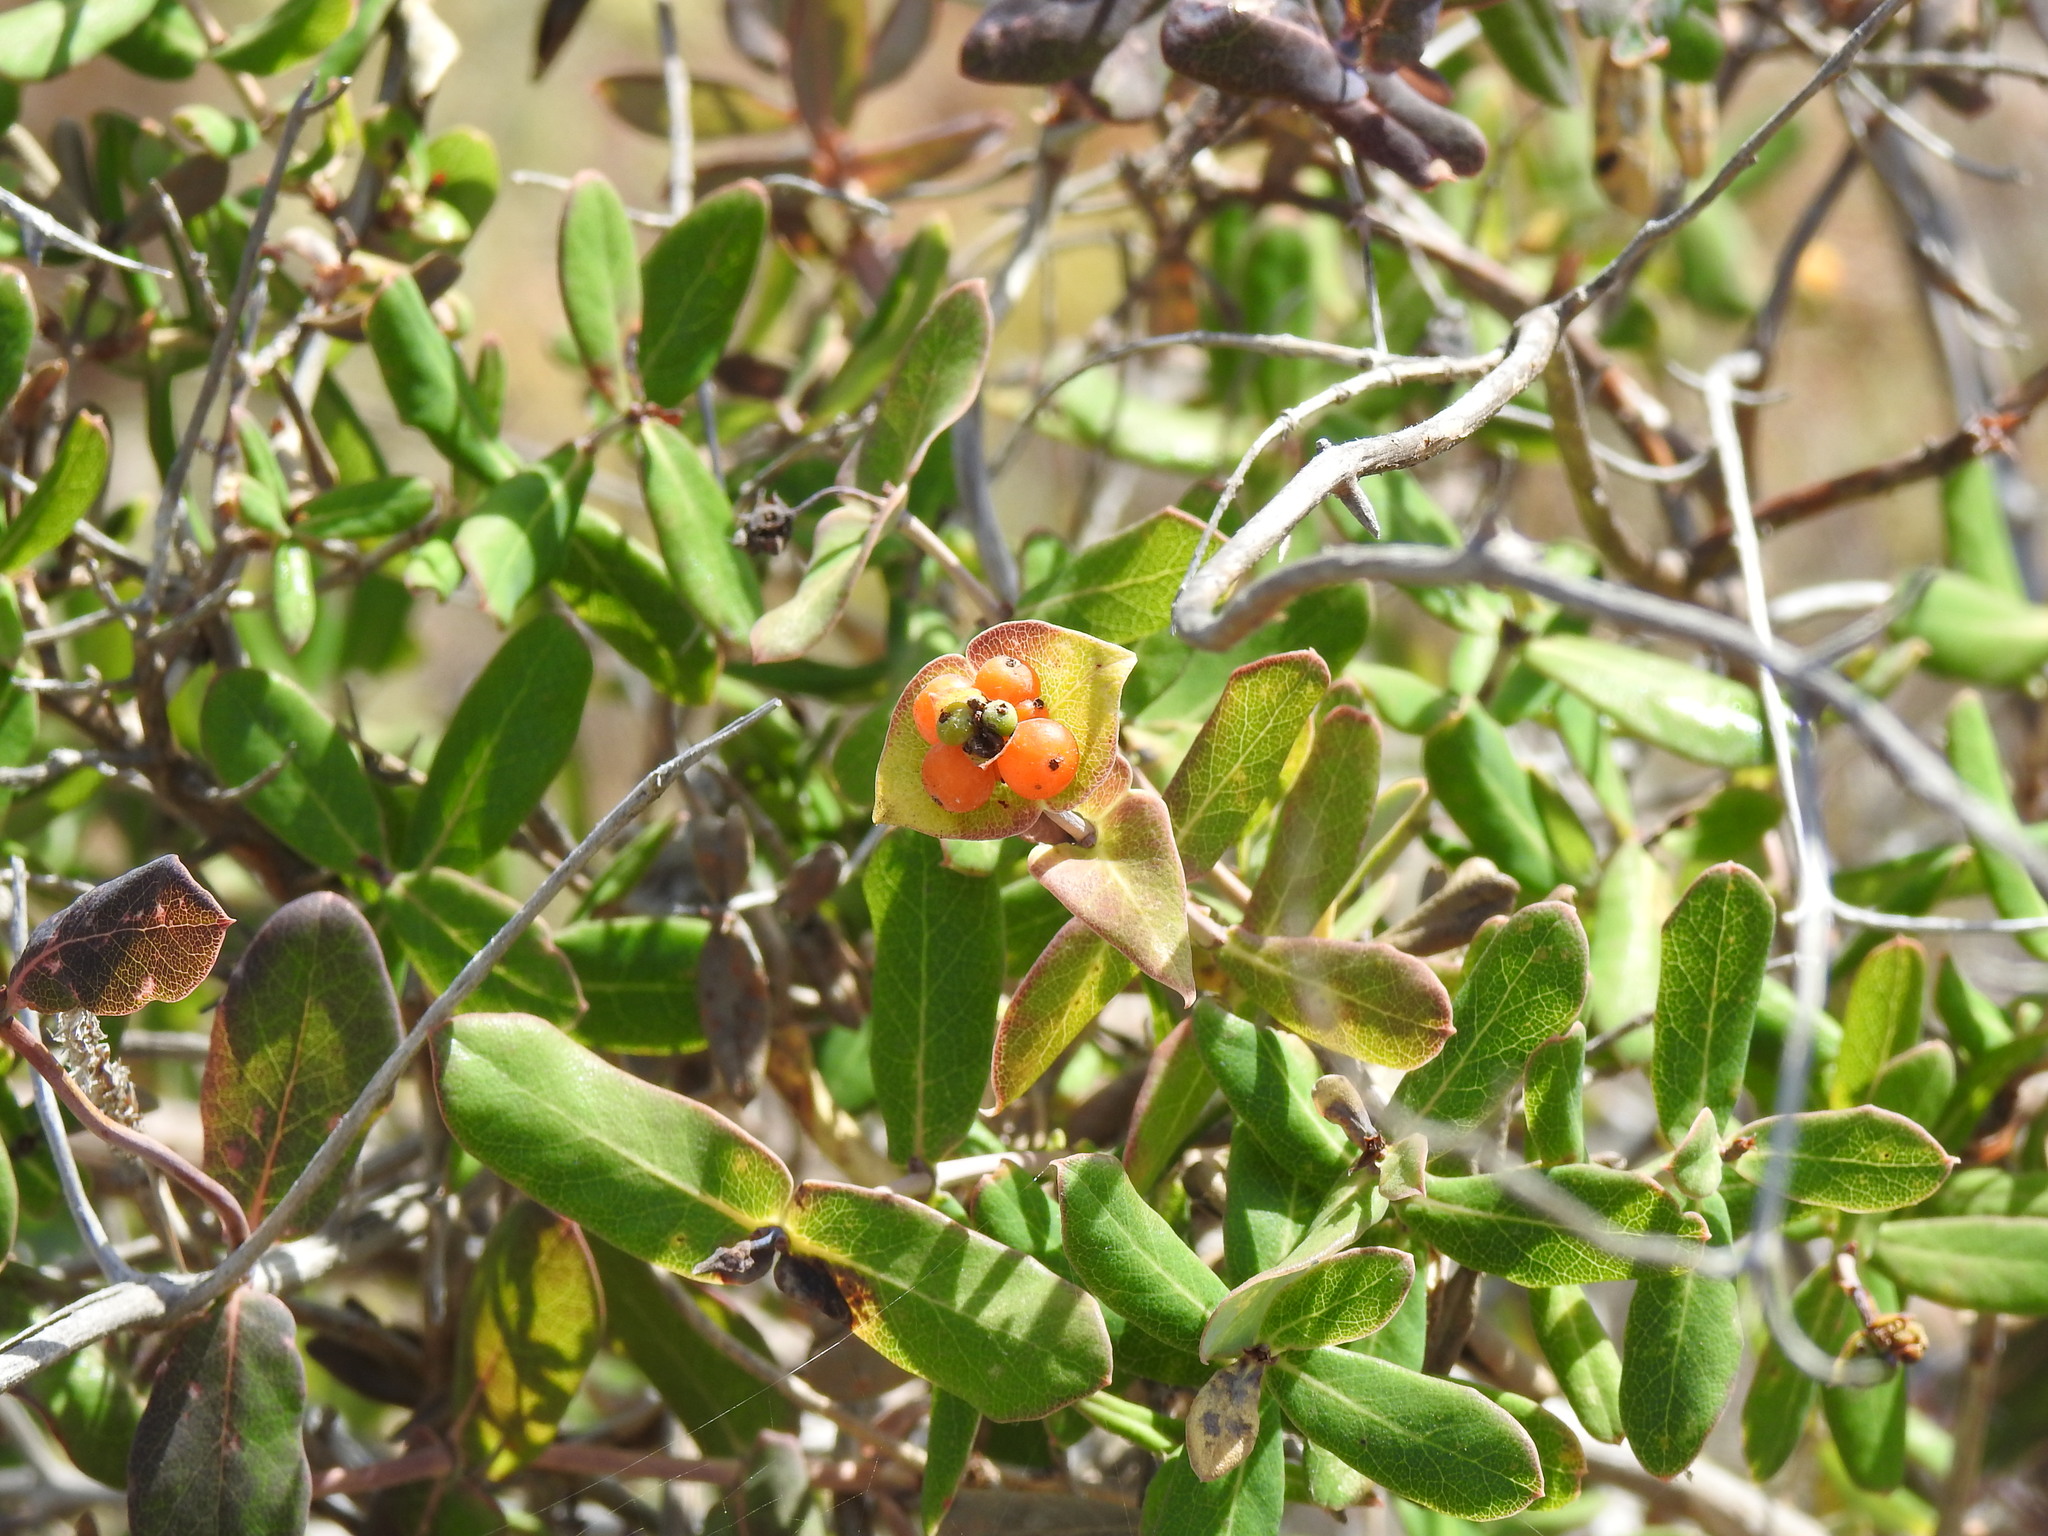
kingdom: Plantae
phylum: Tracheophyta
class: Magnoliopsida
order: Dipsacales
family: Caprifoliaceae
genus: Lonicera
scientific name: Lonicera implexa
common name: Minorca honeysuckle
